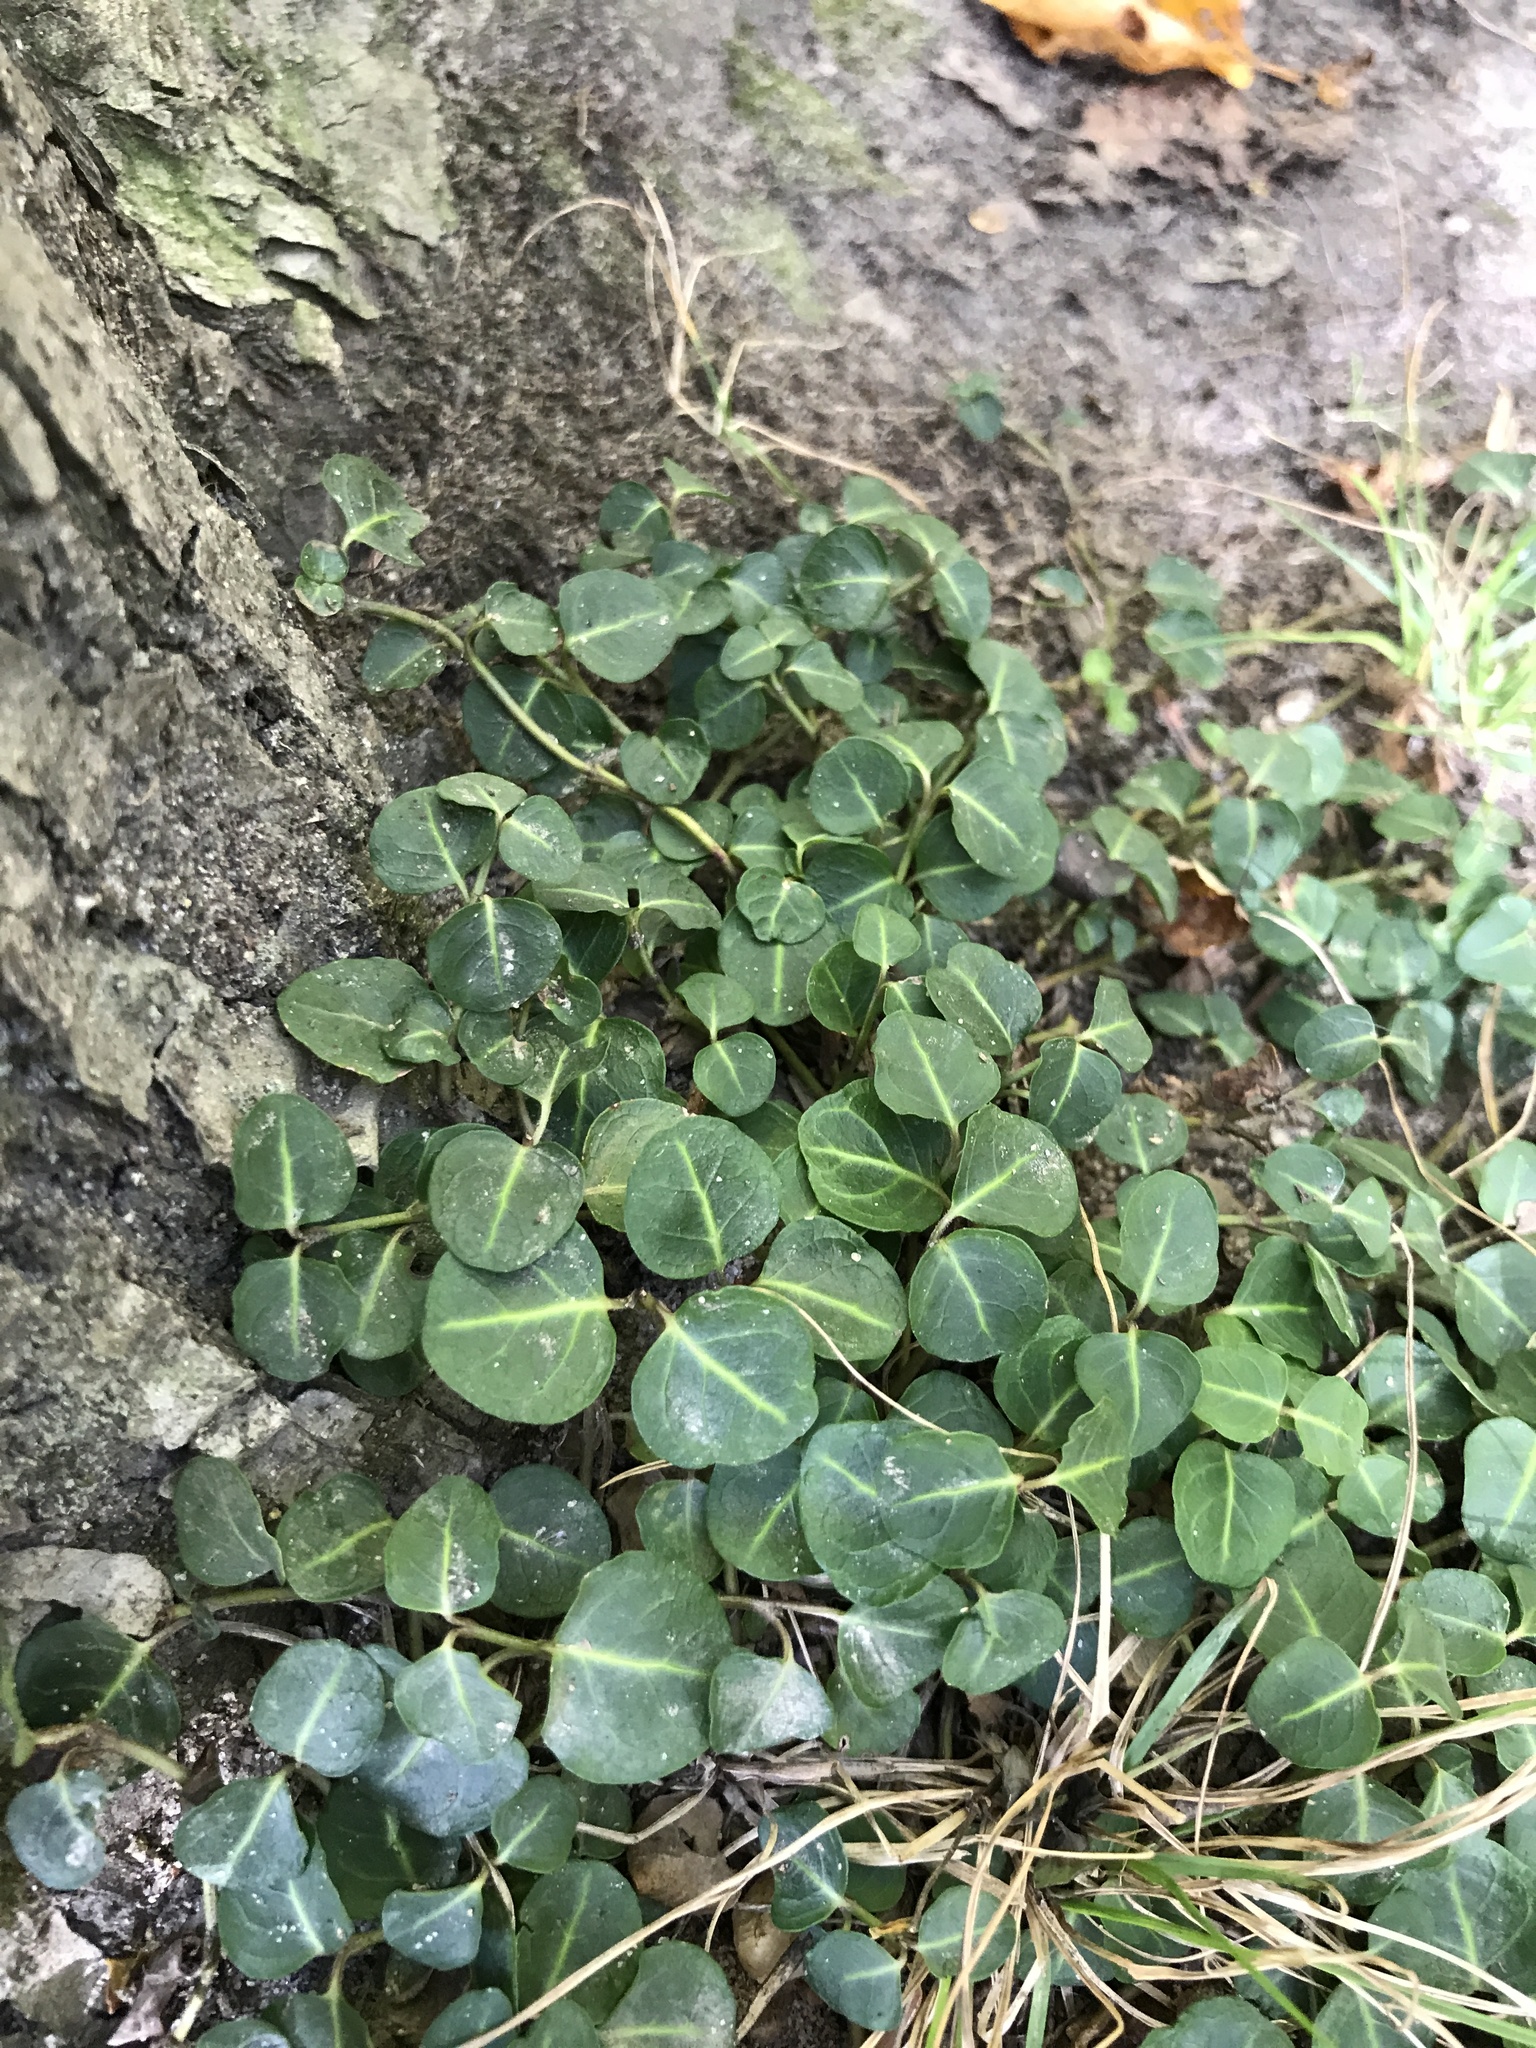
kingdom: Plantae
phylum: Tracheophyta
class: Magnoliopsida
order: Gentianales
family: Rubiaceae
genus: Mitchella
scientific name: Mitchella repens
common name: Partridge-berry
